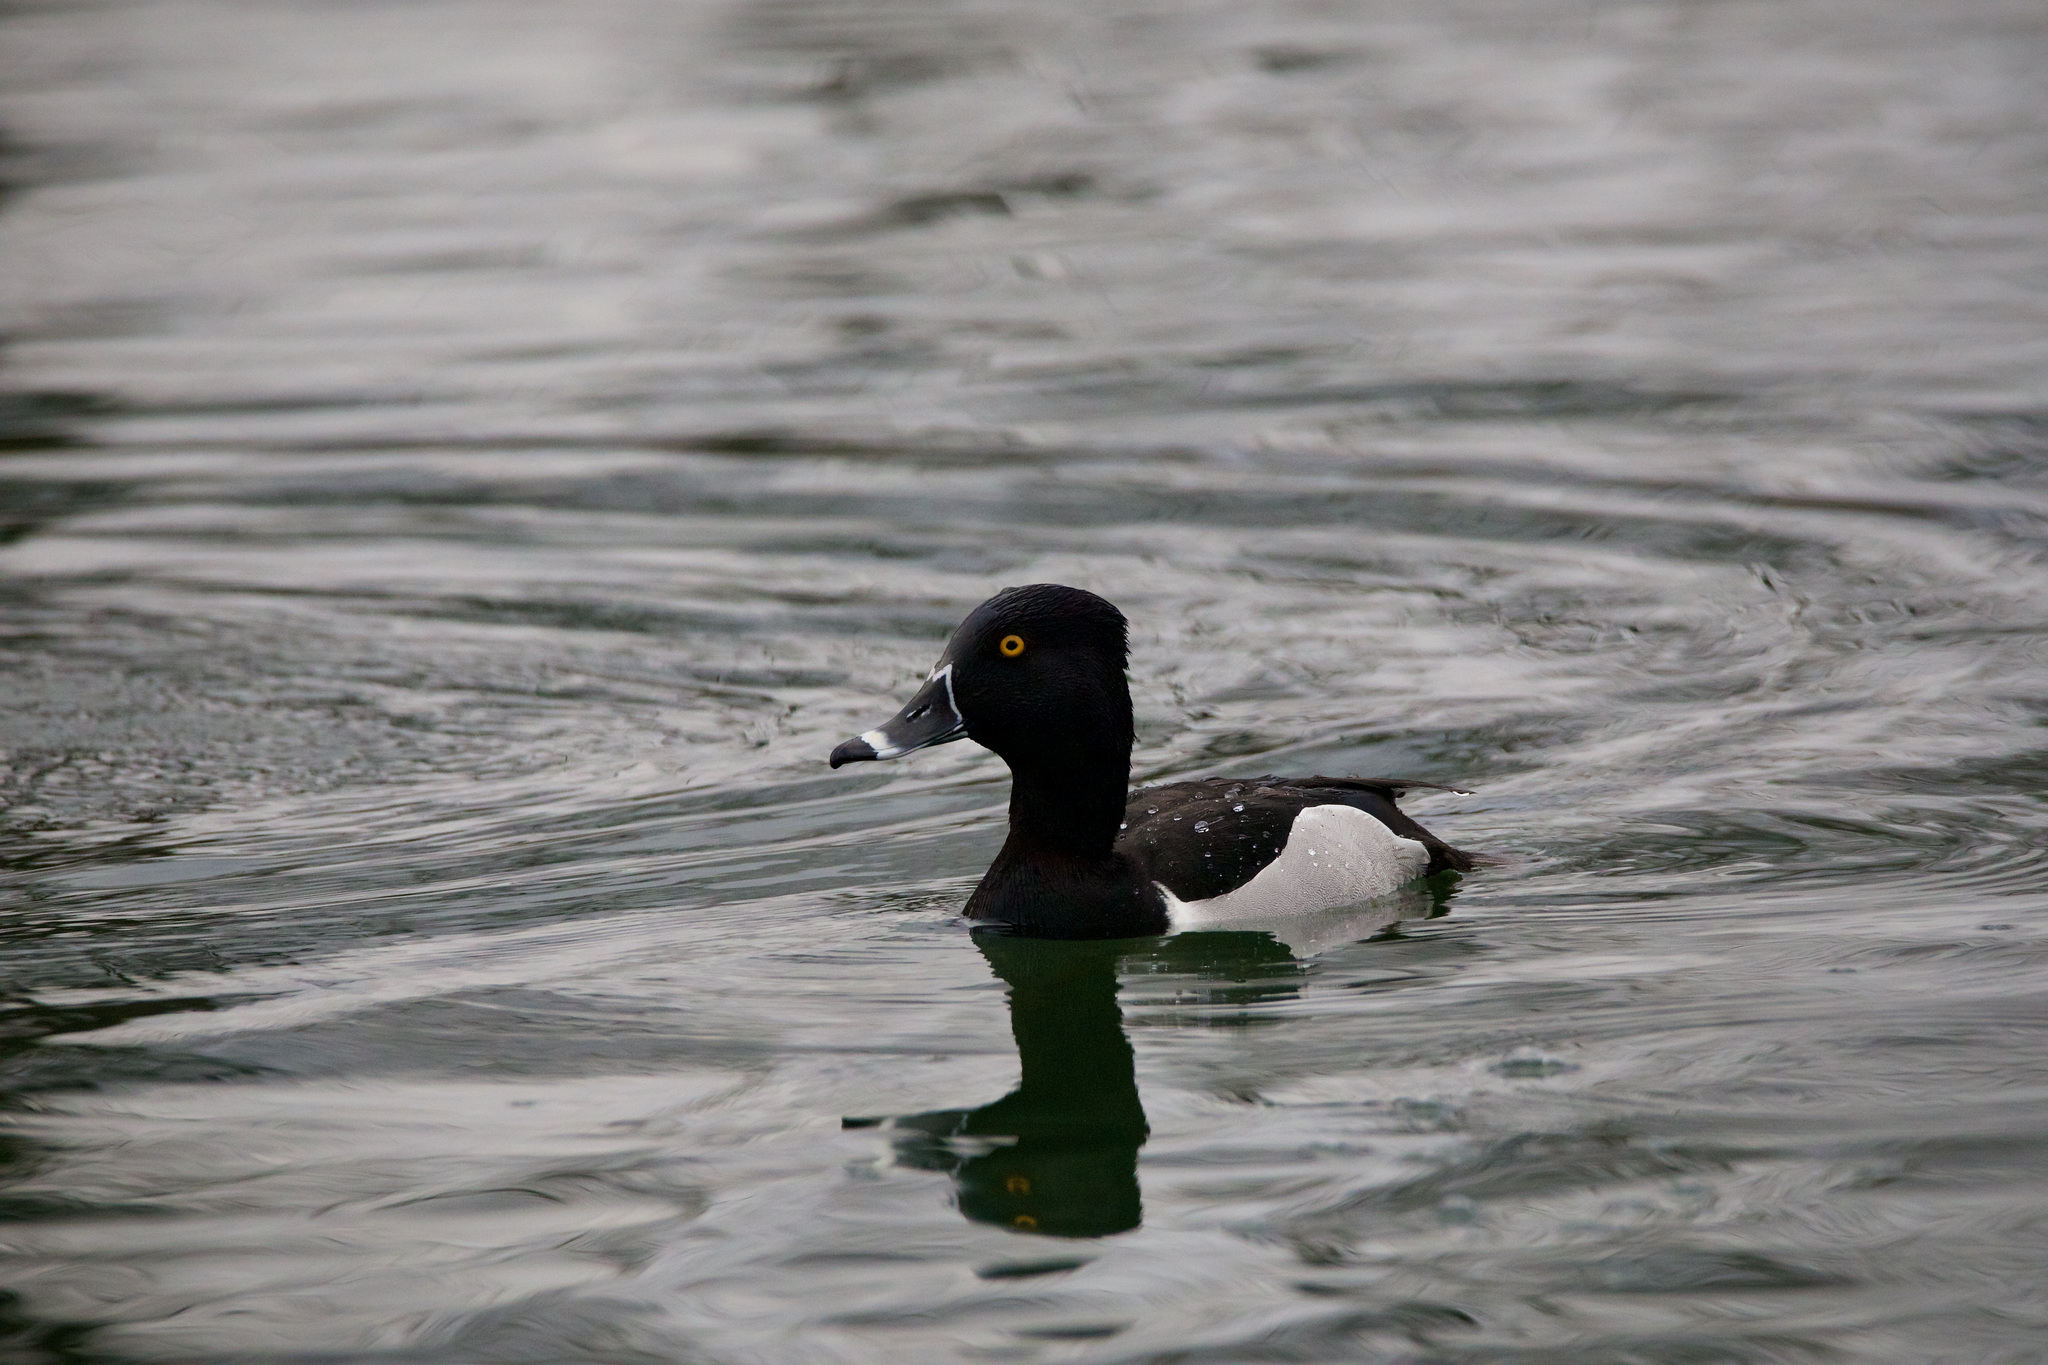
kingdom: Animalia
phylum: Chordata
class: Aves
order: Anseriformes
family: Anatidae
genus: Aythya
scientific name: Aythya collaris
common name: Ring-necked duck
